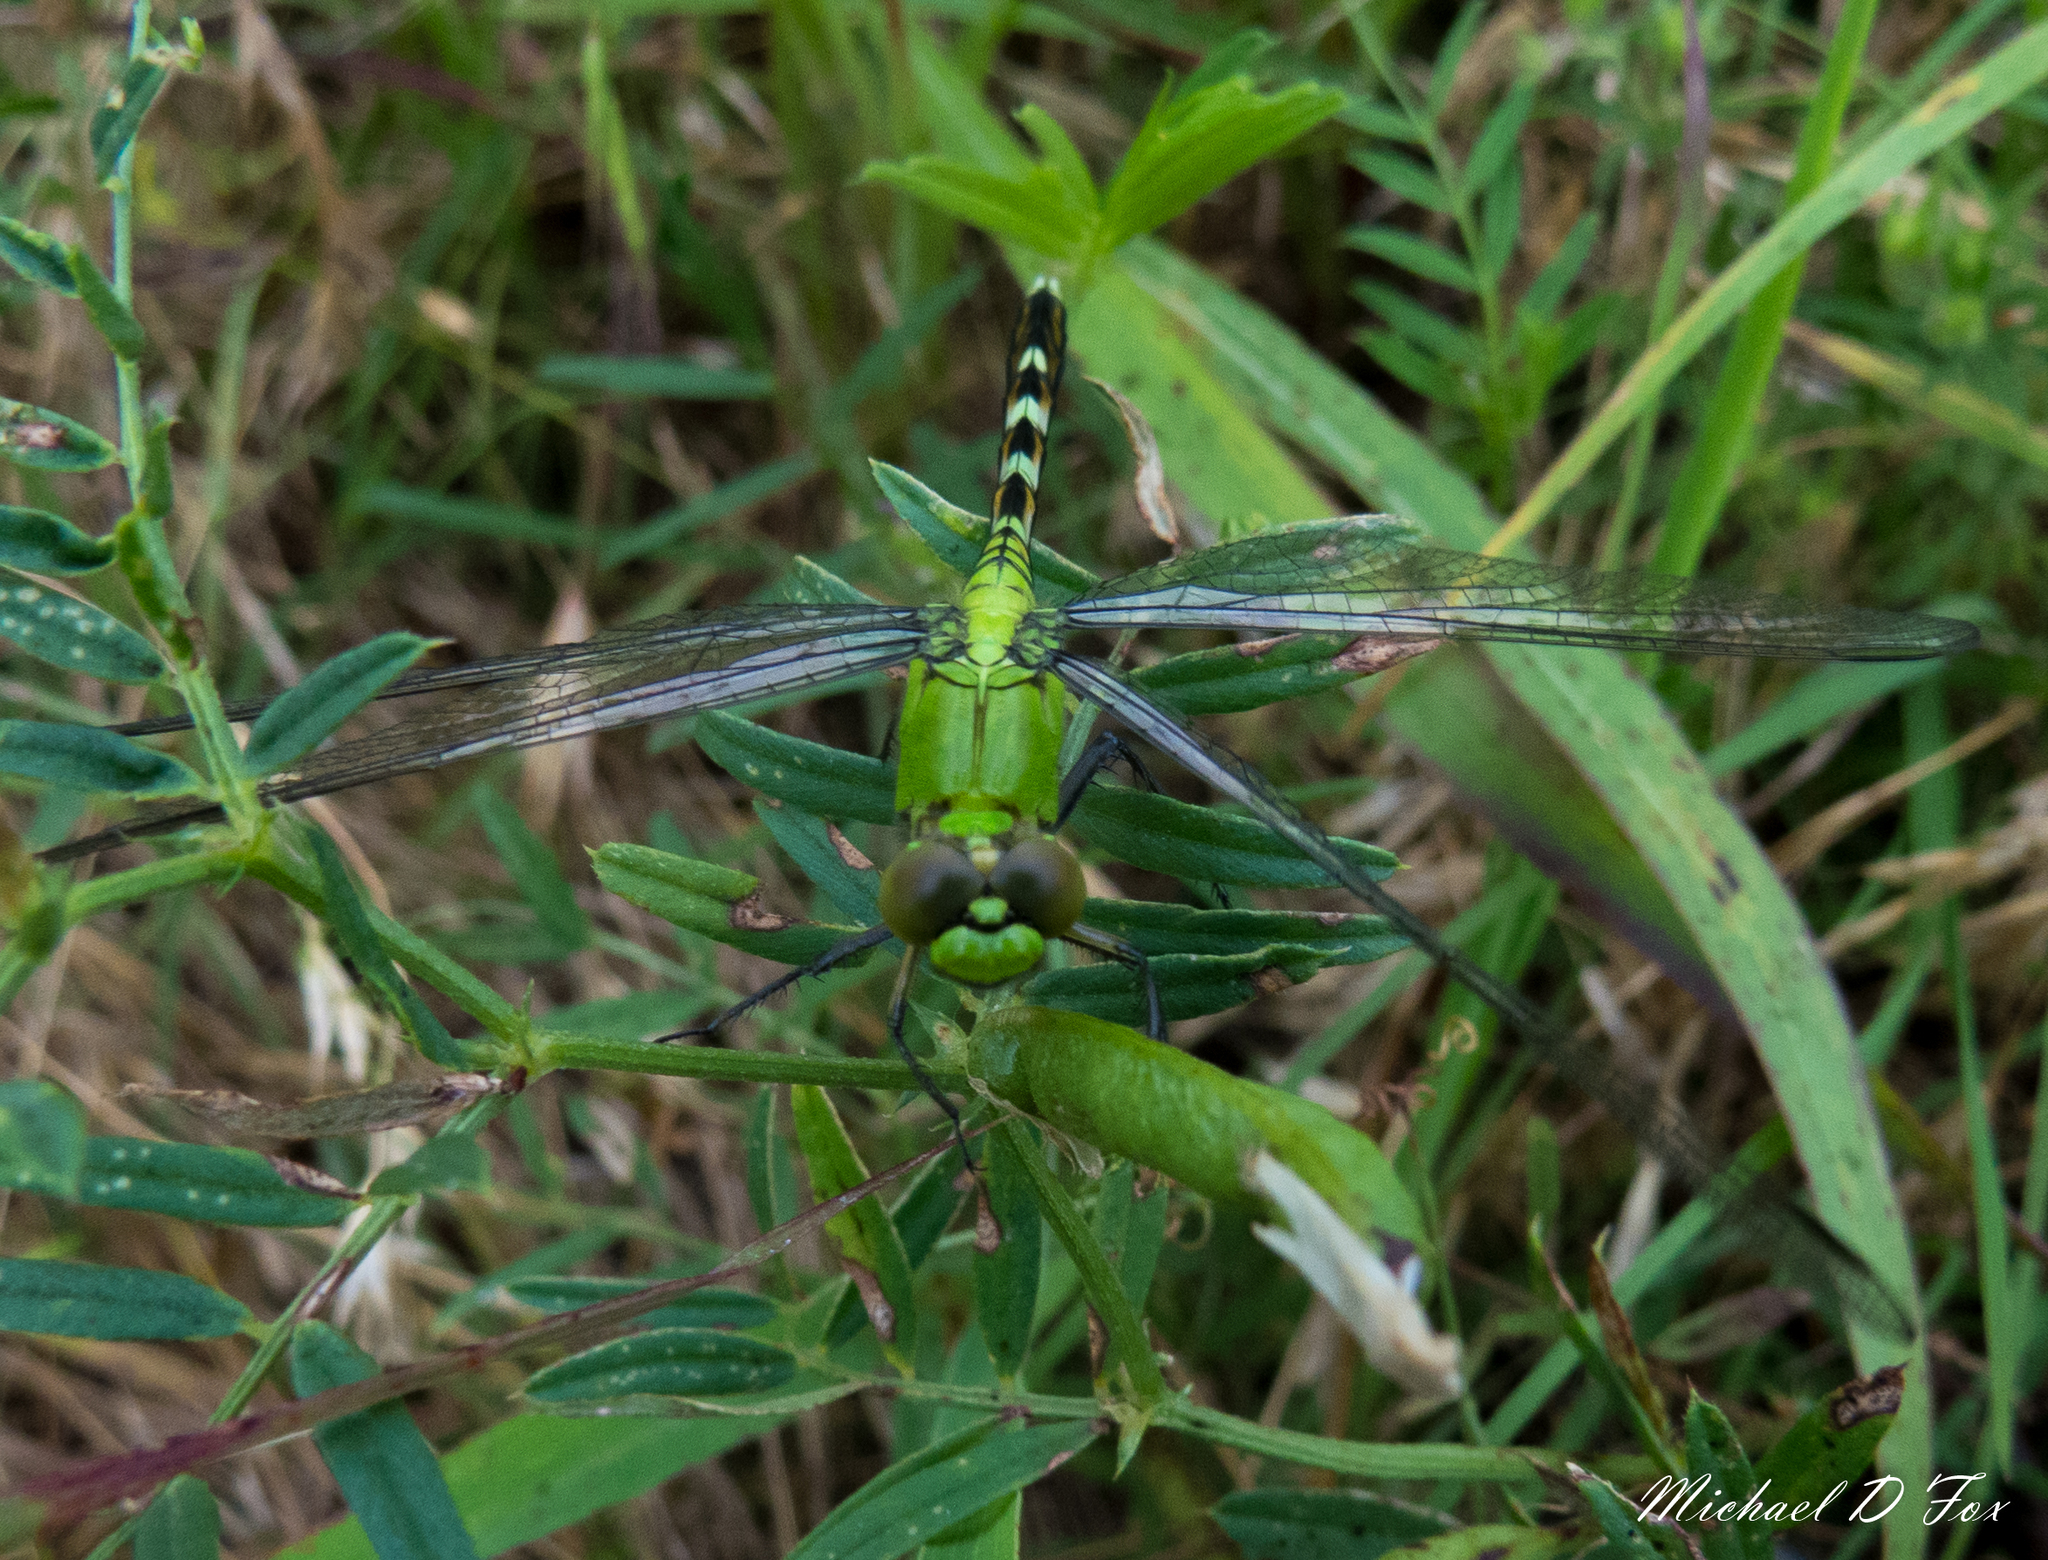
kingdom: Animalia
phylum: Arthropoda
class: Insecta
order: Odonata
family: Libellulidae
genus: Erythemis
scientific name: Erythemis simplicicollis
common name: Eastern pondhawk
